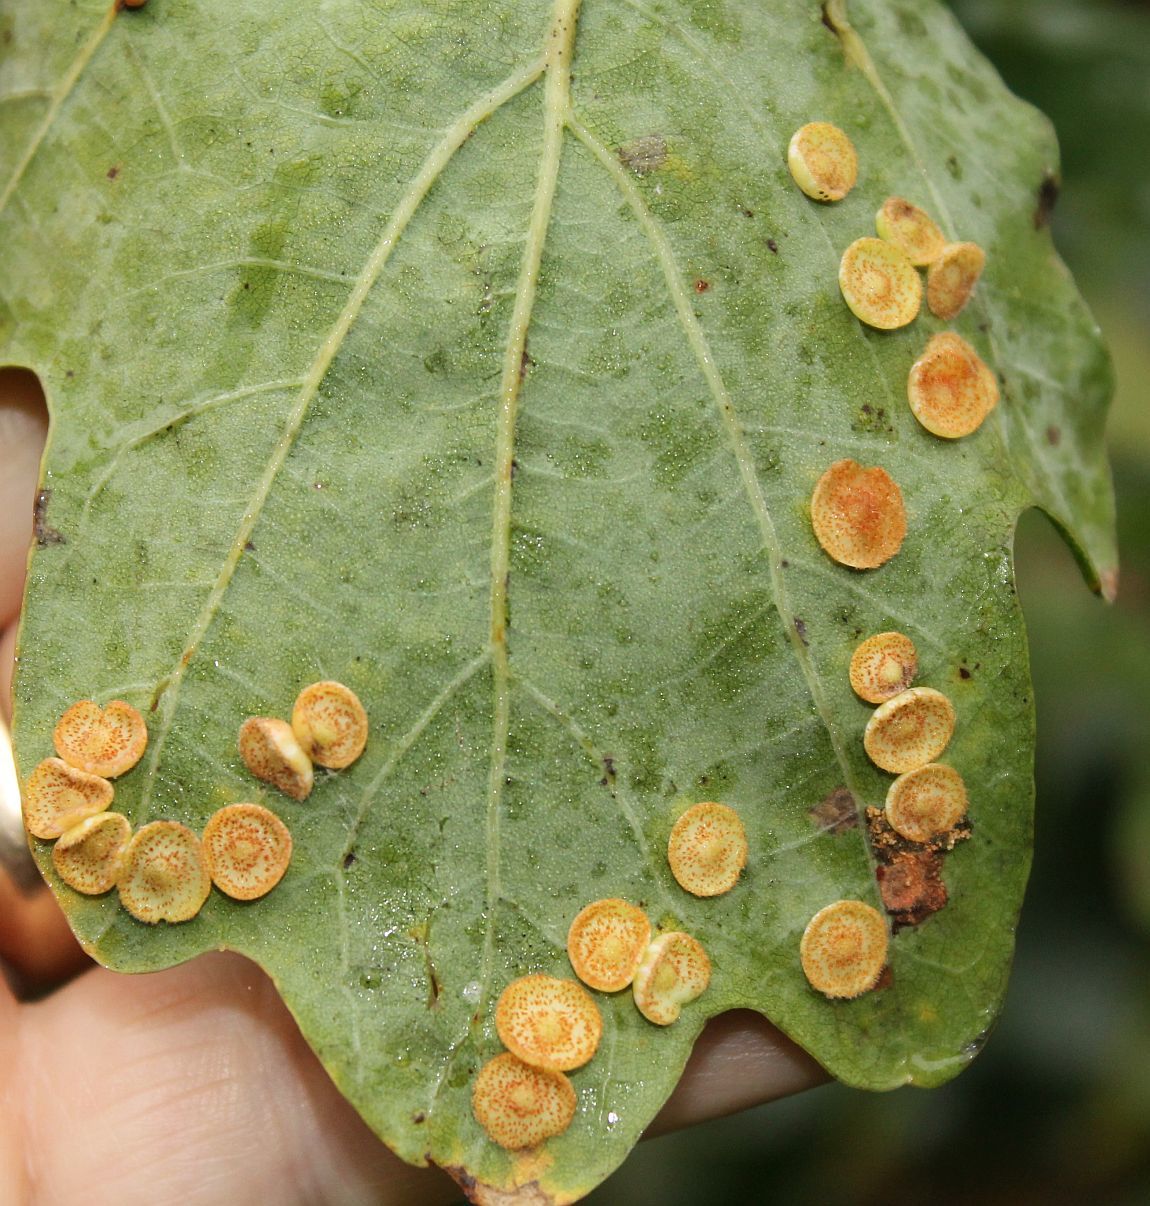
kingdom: Animalia
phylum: Arthropoda
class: Insecta
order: Hymenoptera
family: Cynipidae
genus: Neuroterus
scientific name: Neuroterus quercusbaccarum
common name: Common spangle gall
